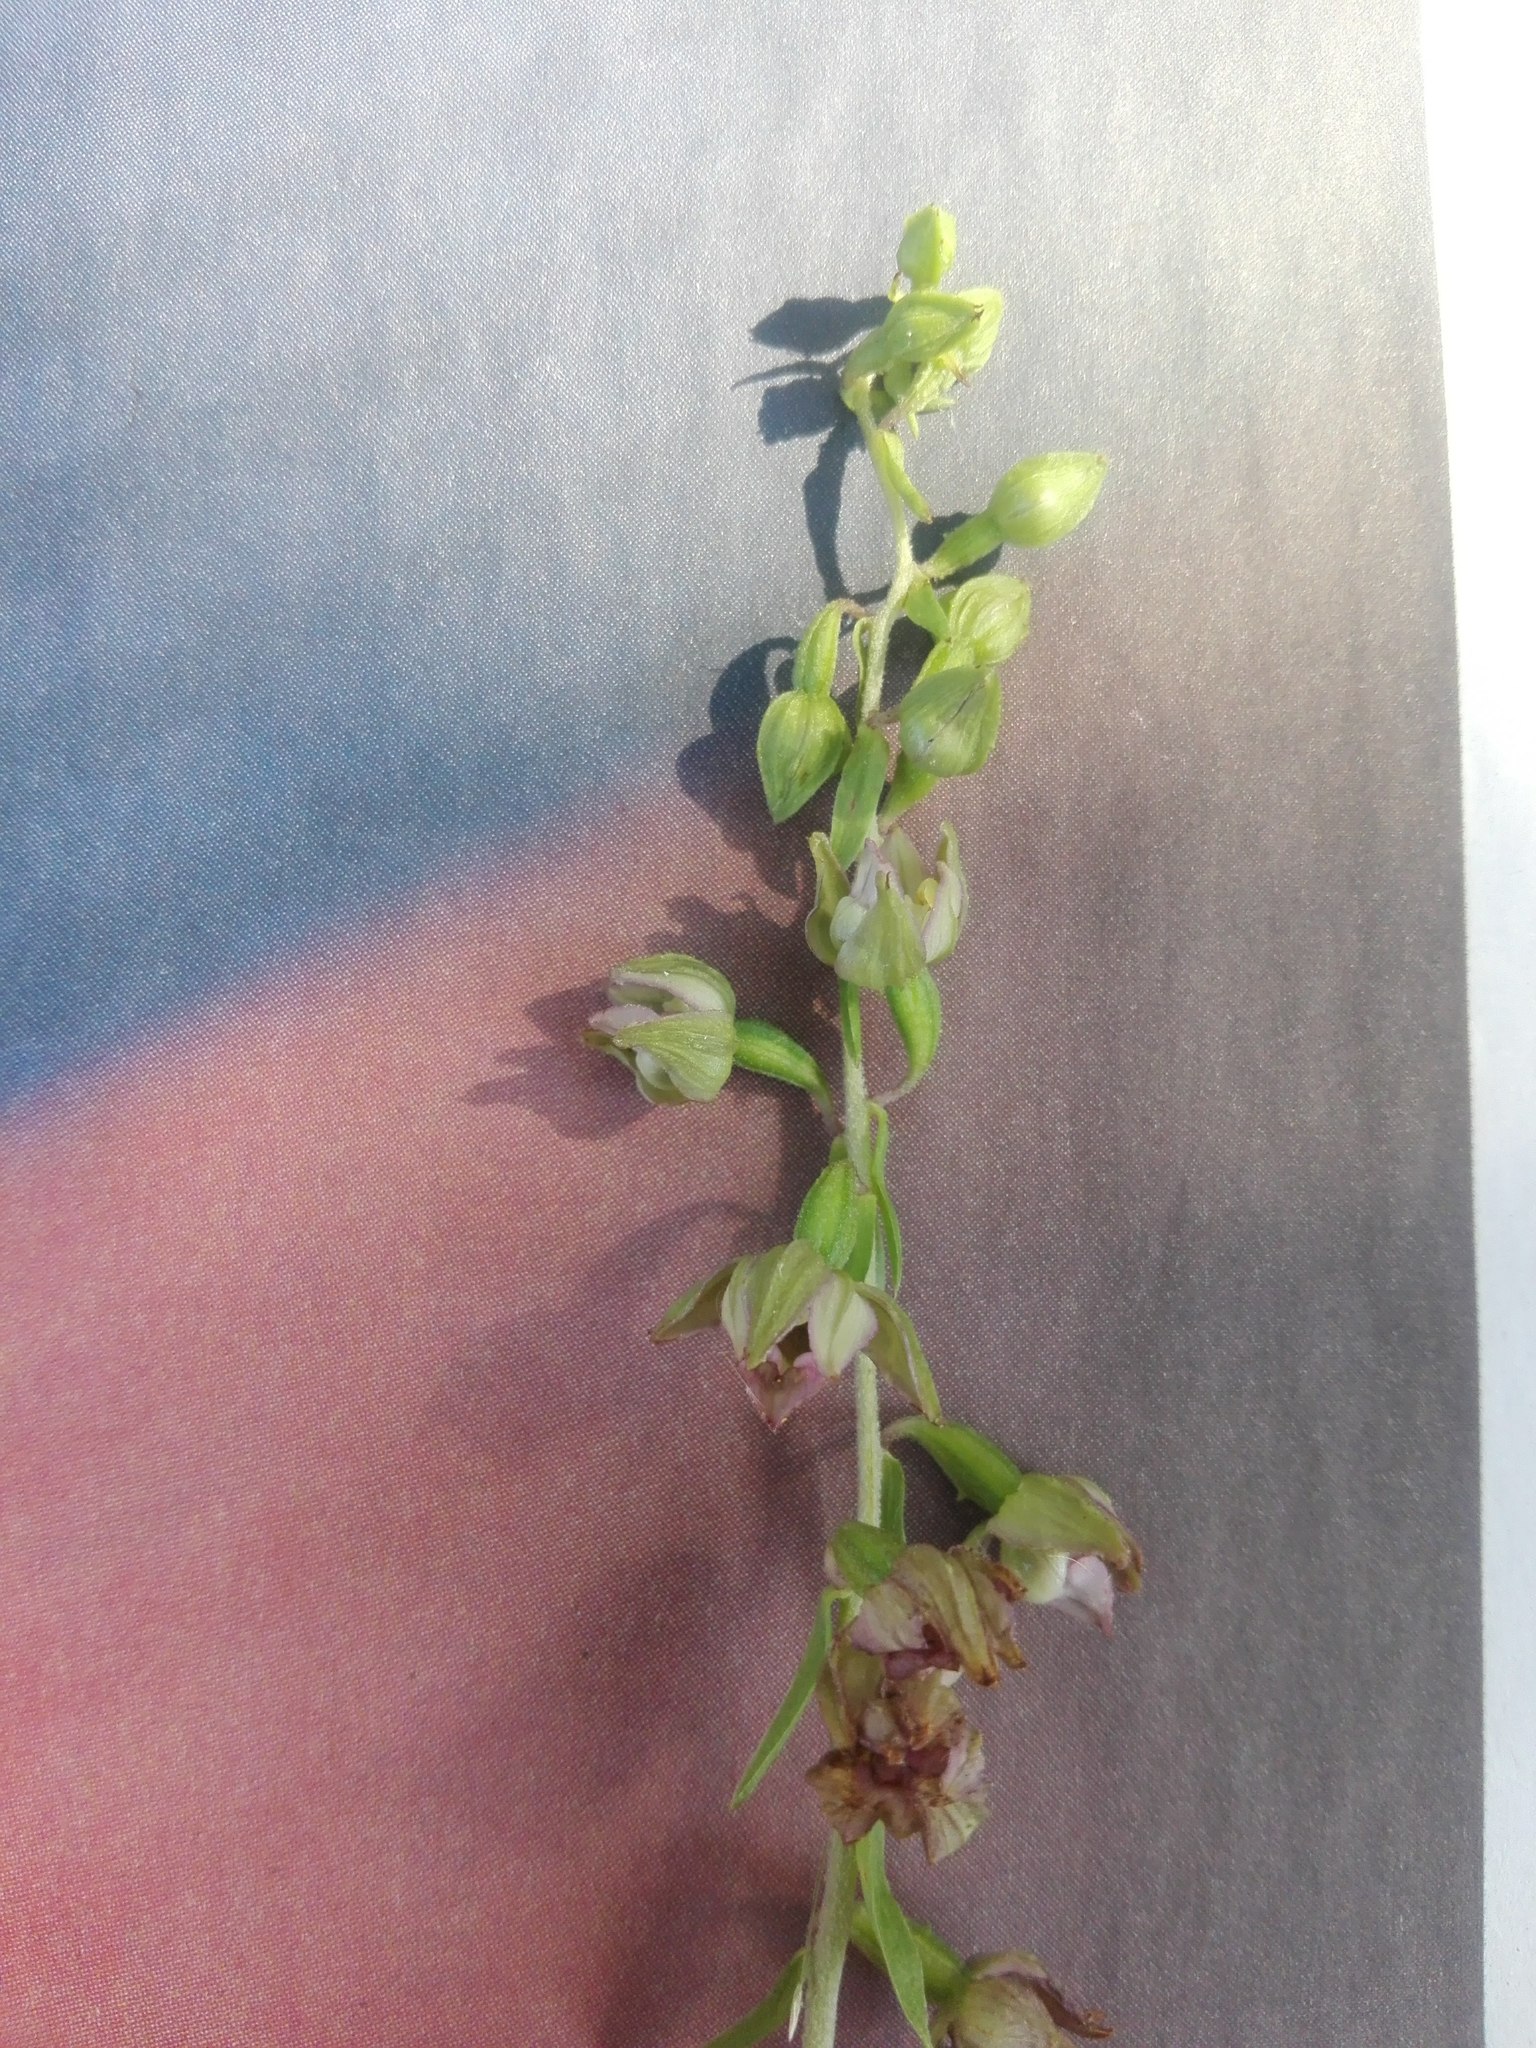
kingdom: Plantae
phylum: Tracheophyta
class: Liliopsida
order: Asparagales
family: Orchidaceae
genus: Epipactis
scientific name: Epipactis helleborine
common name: Broad-leaved helleborine
